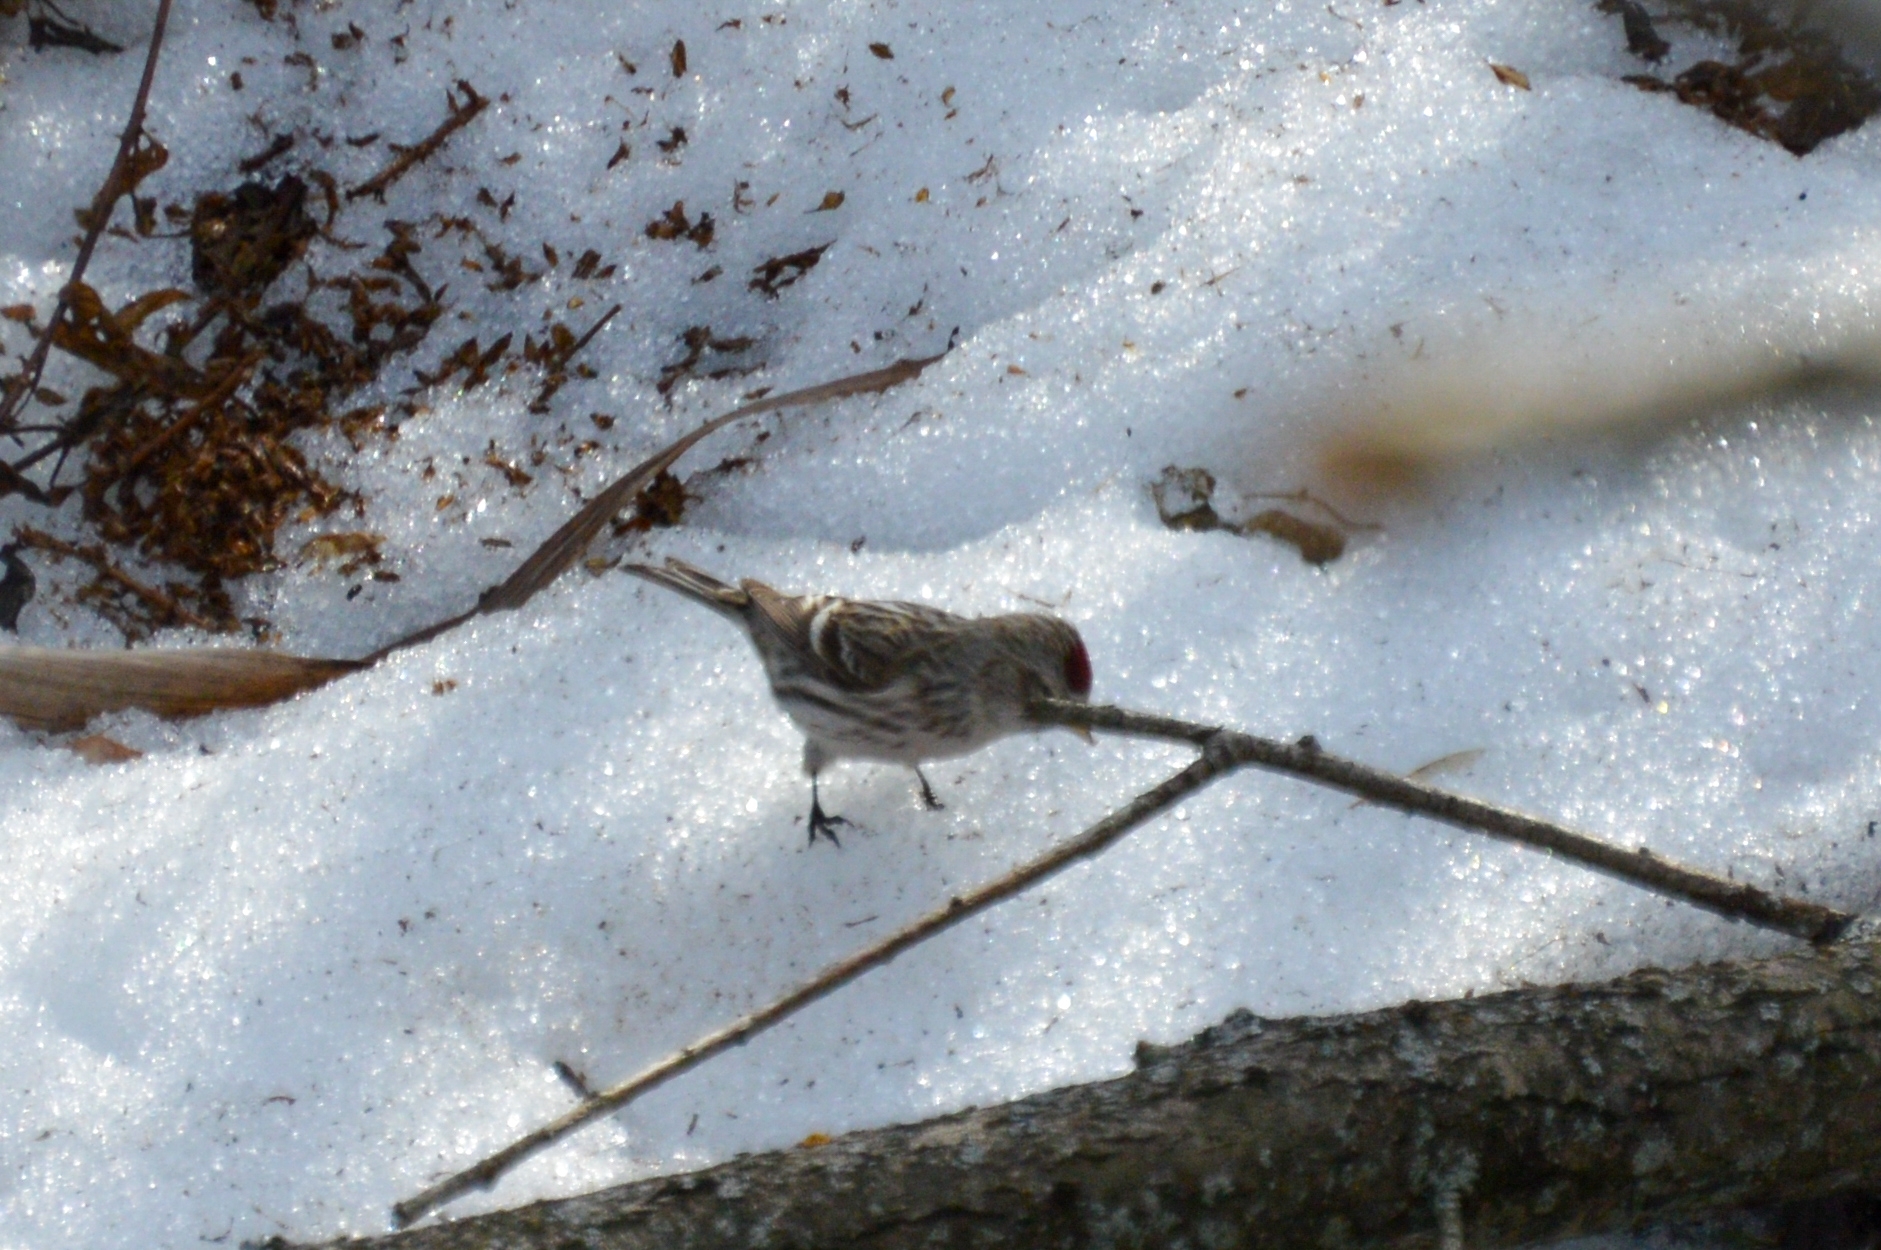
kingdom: Animalia
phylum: Chordata
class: Aves
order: Passeriformes
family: Fringillidae
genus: Acanthis
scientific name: Acanthis flammea
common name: Common redpoll
